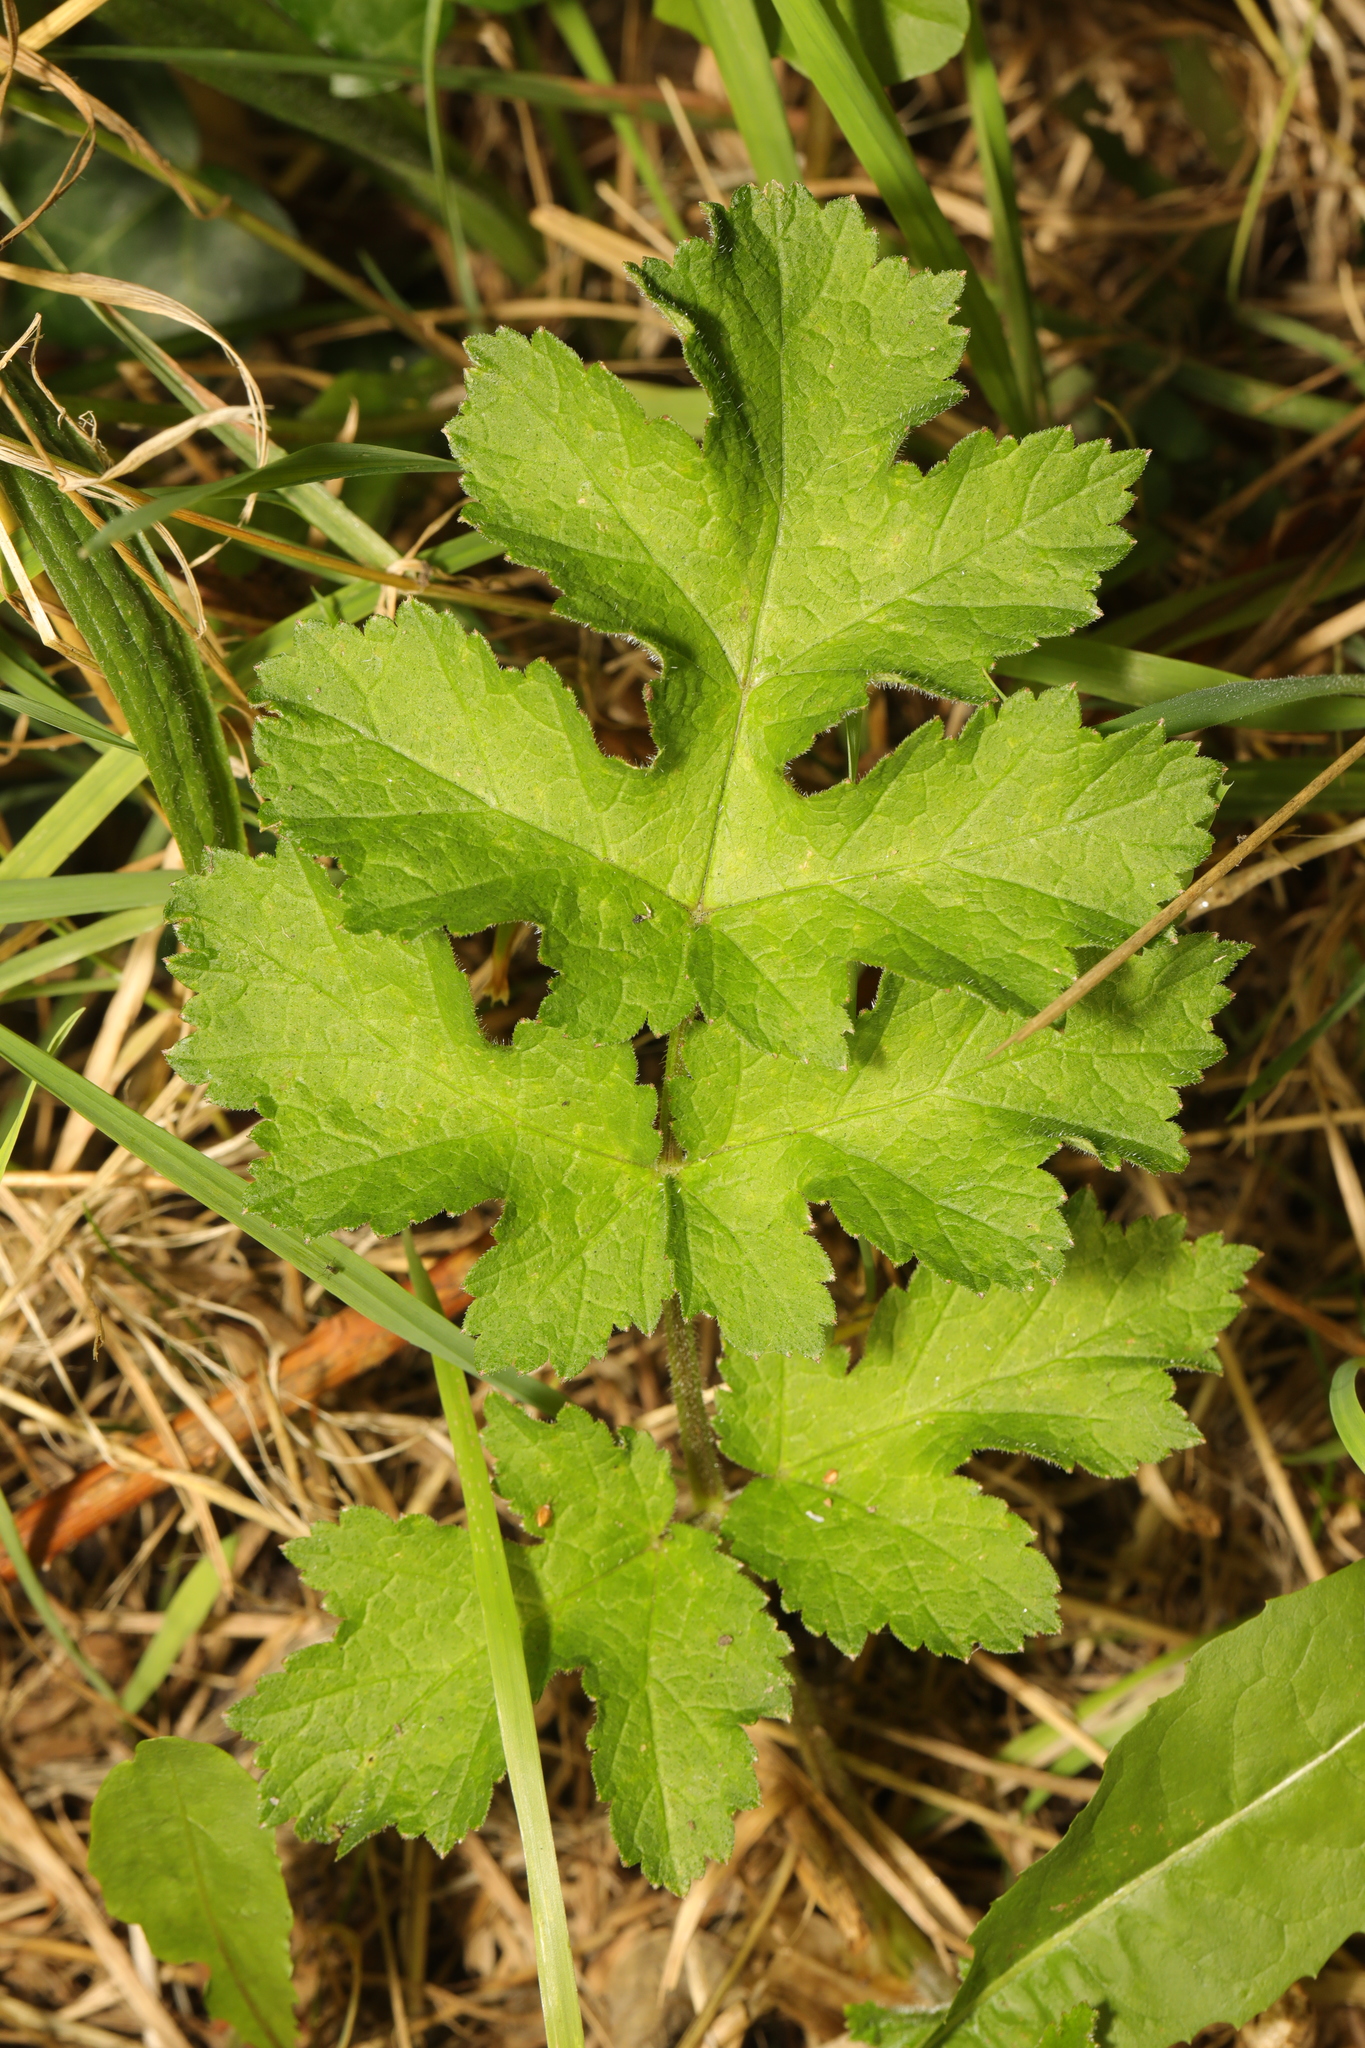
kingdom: Plantae
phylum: Tracheophyta
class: Magnoliopsida
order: Apiales
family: Apiaceae
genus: Heracleum
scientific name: Heracleum sphondylium
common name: Hogweed
